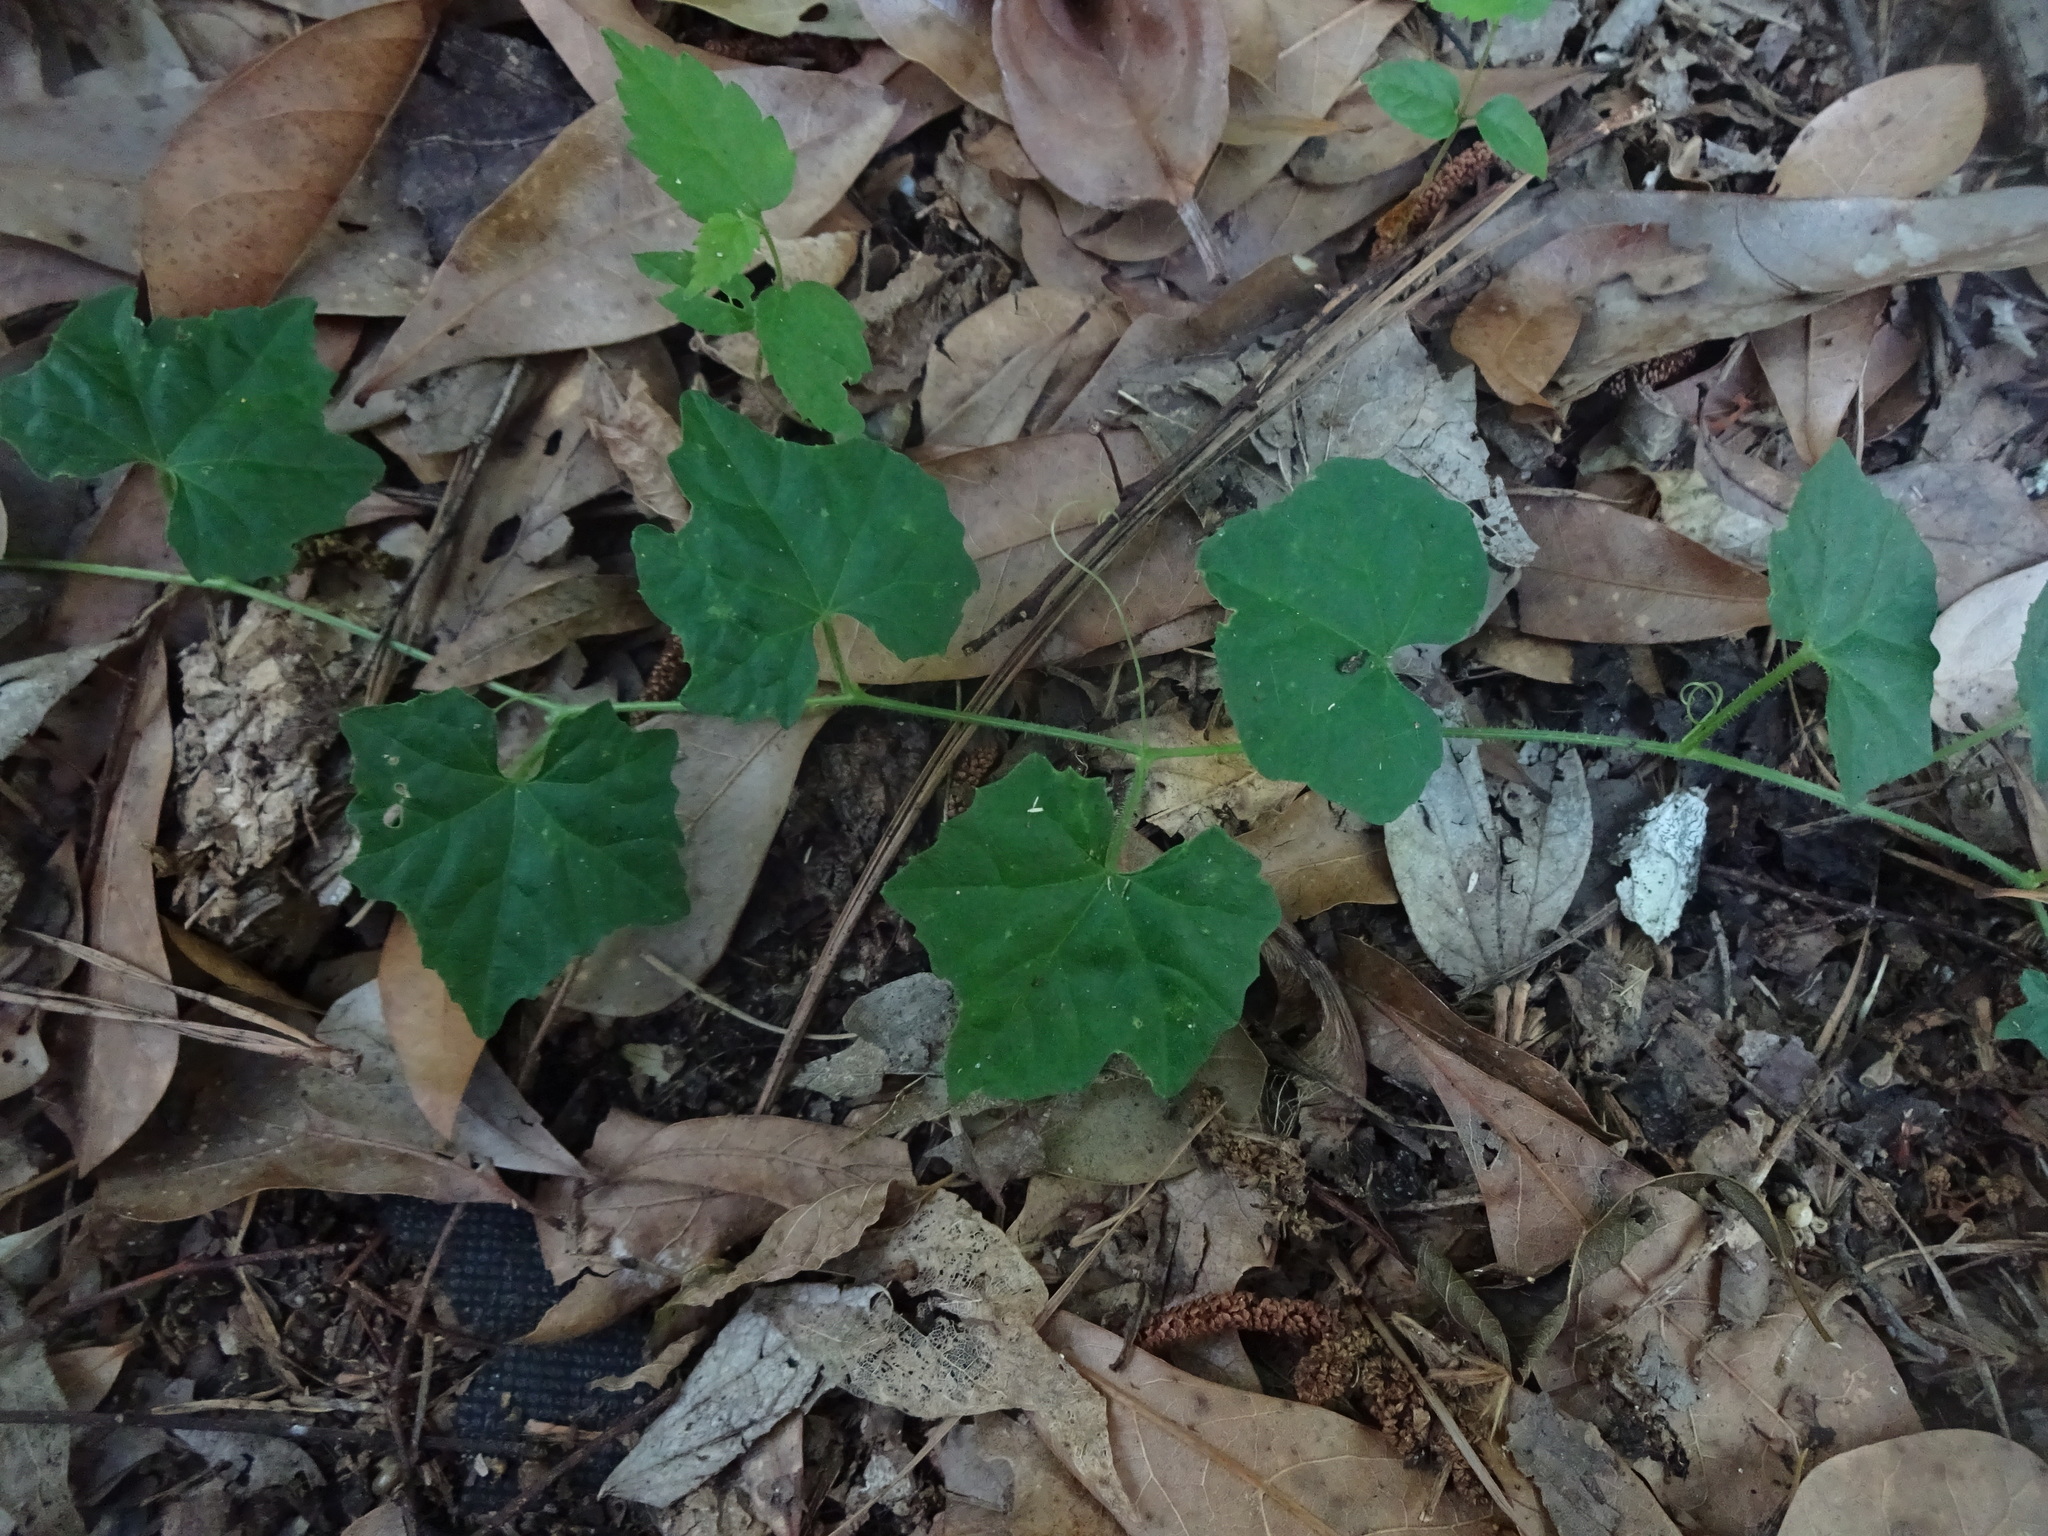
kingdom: Plantae
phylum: Tracheophyta
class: Magnoliopsida
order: Cucurbitales
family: Cucurbitaceae
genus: Melothria
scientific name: Melothria pendula
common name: Creeping-cucumber
